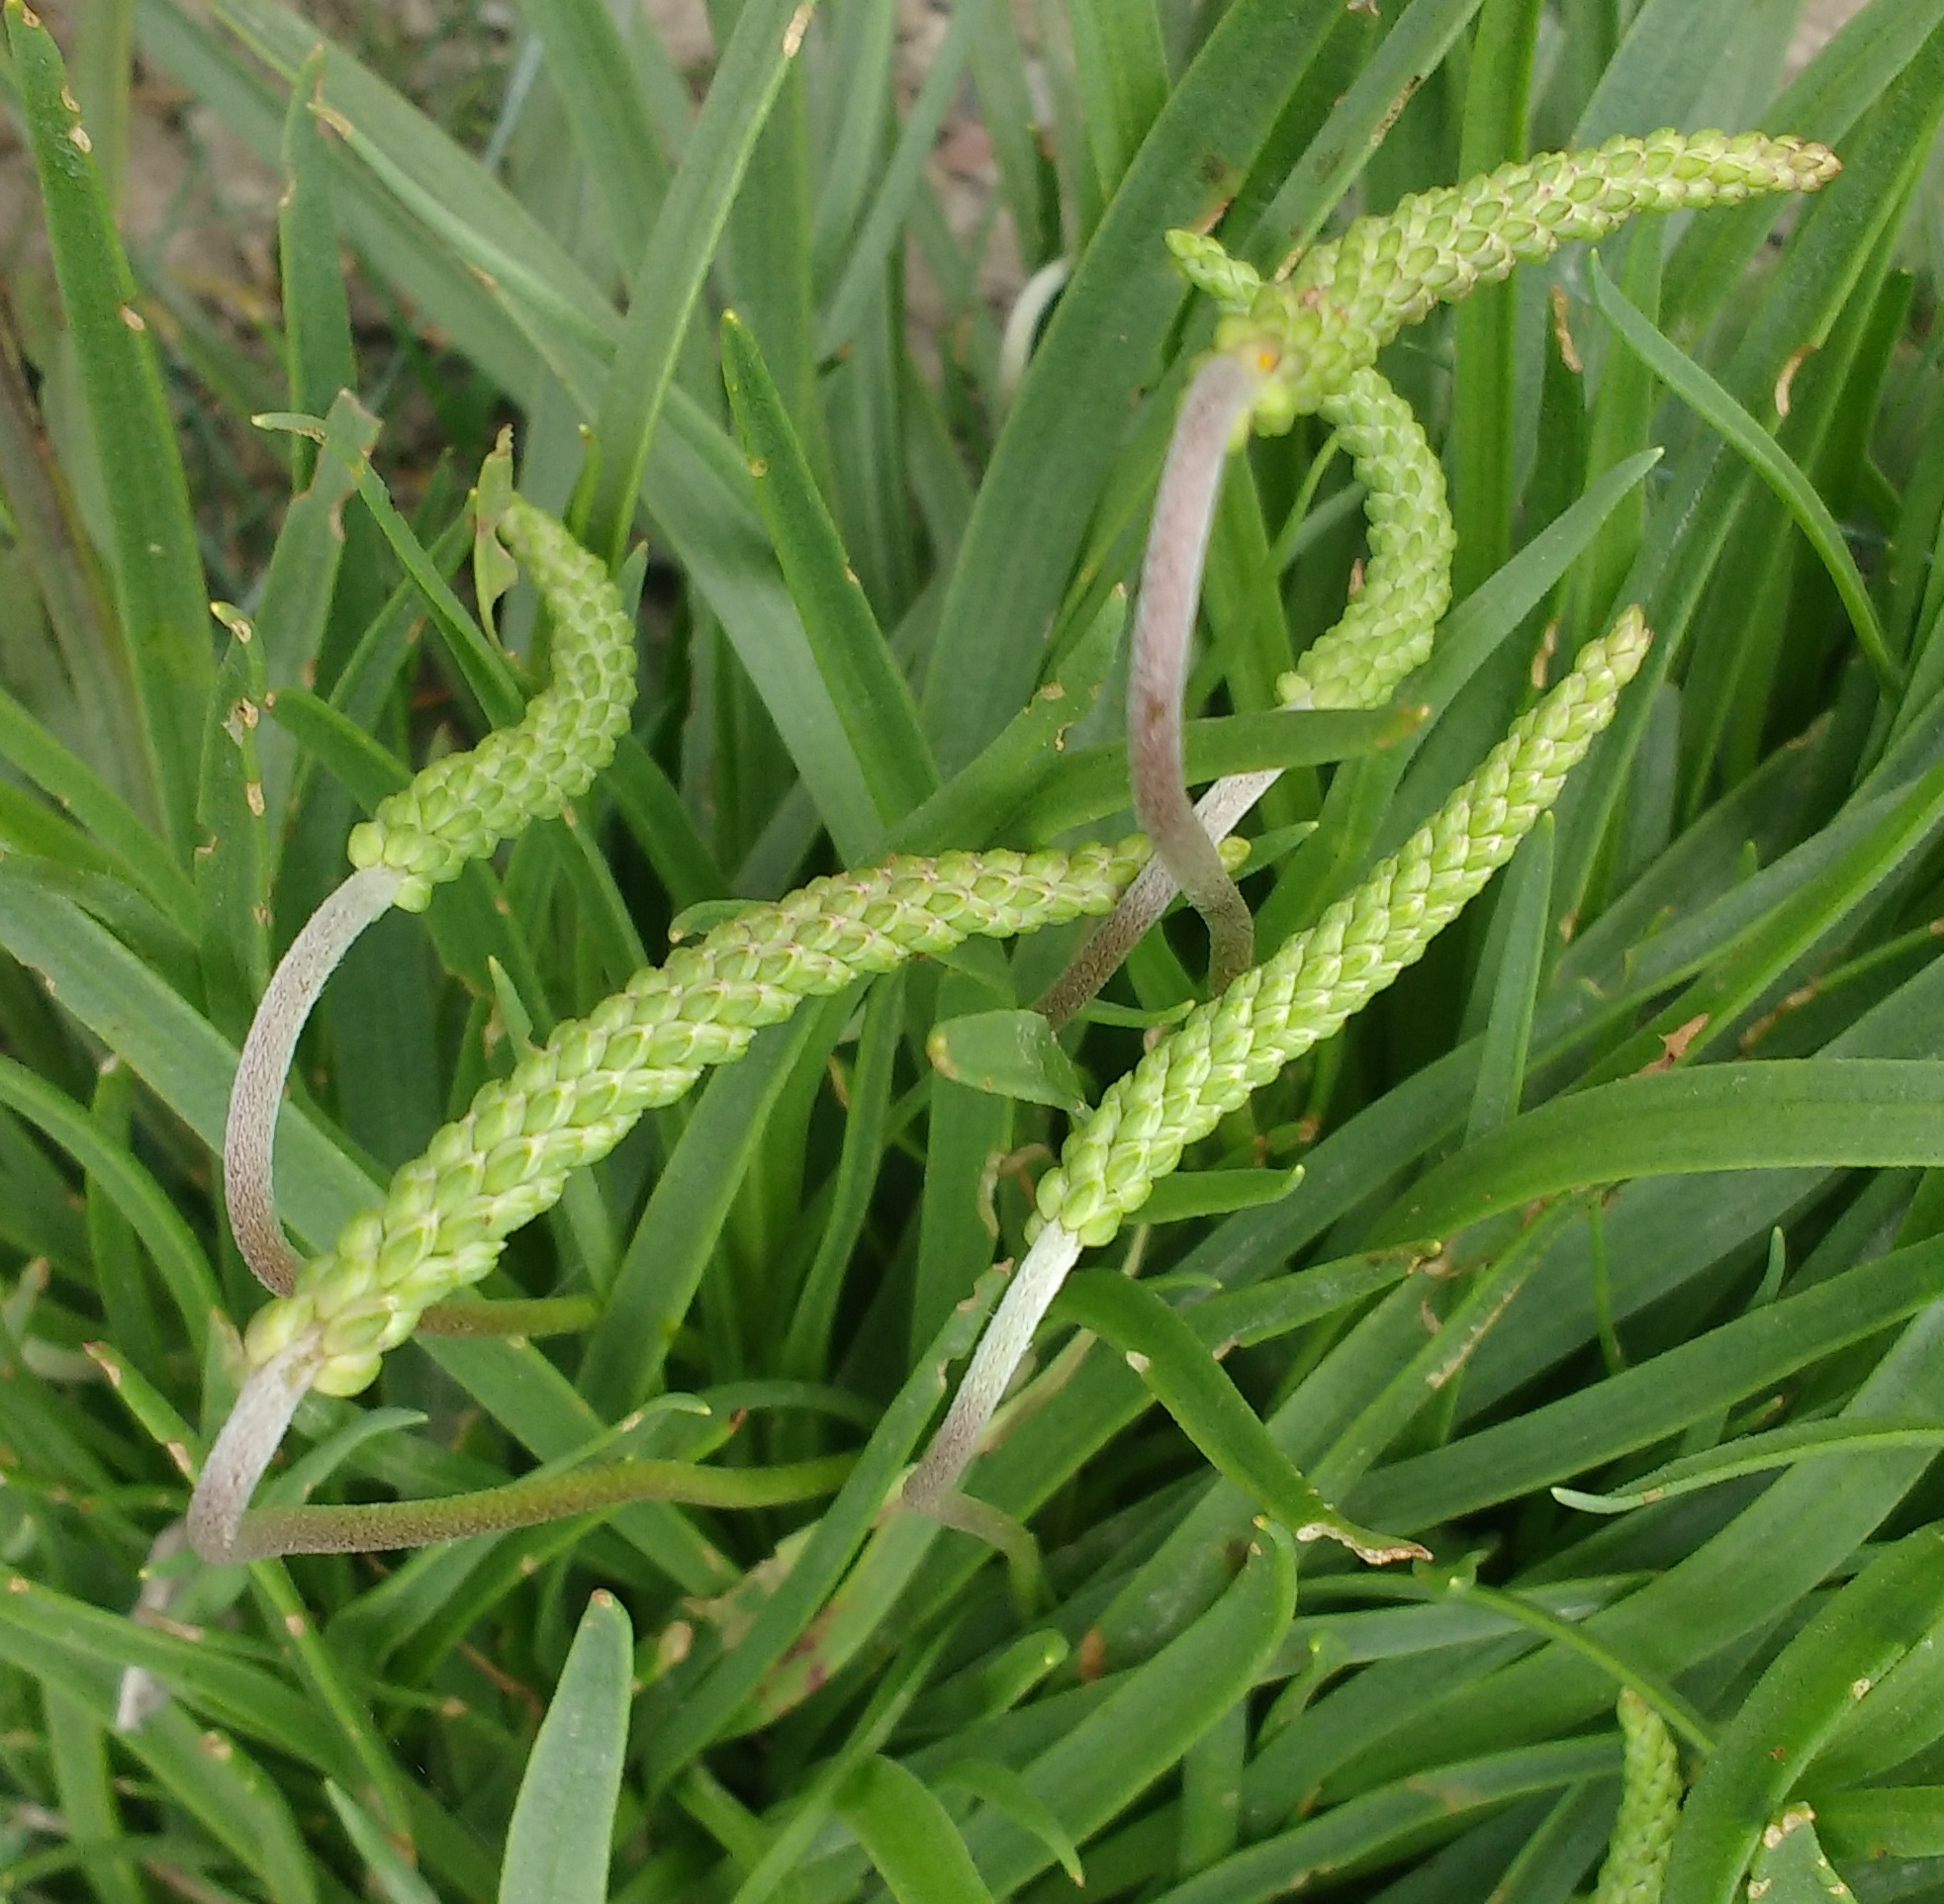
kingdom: Plantae
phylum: Tracheophyta
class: Magnoliopsida
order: Lamiales
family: Plantaginaceae
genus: Plantago
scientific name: Plantago maritima
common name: Sea plantain
